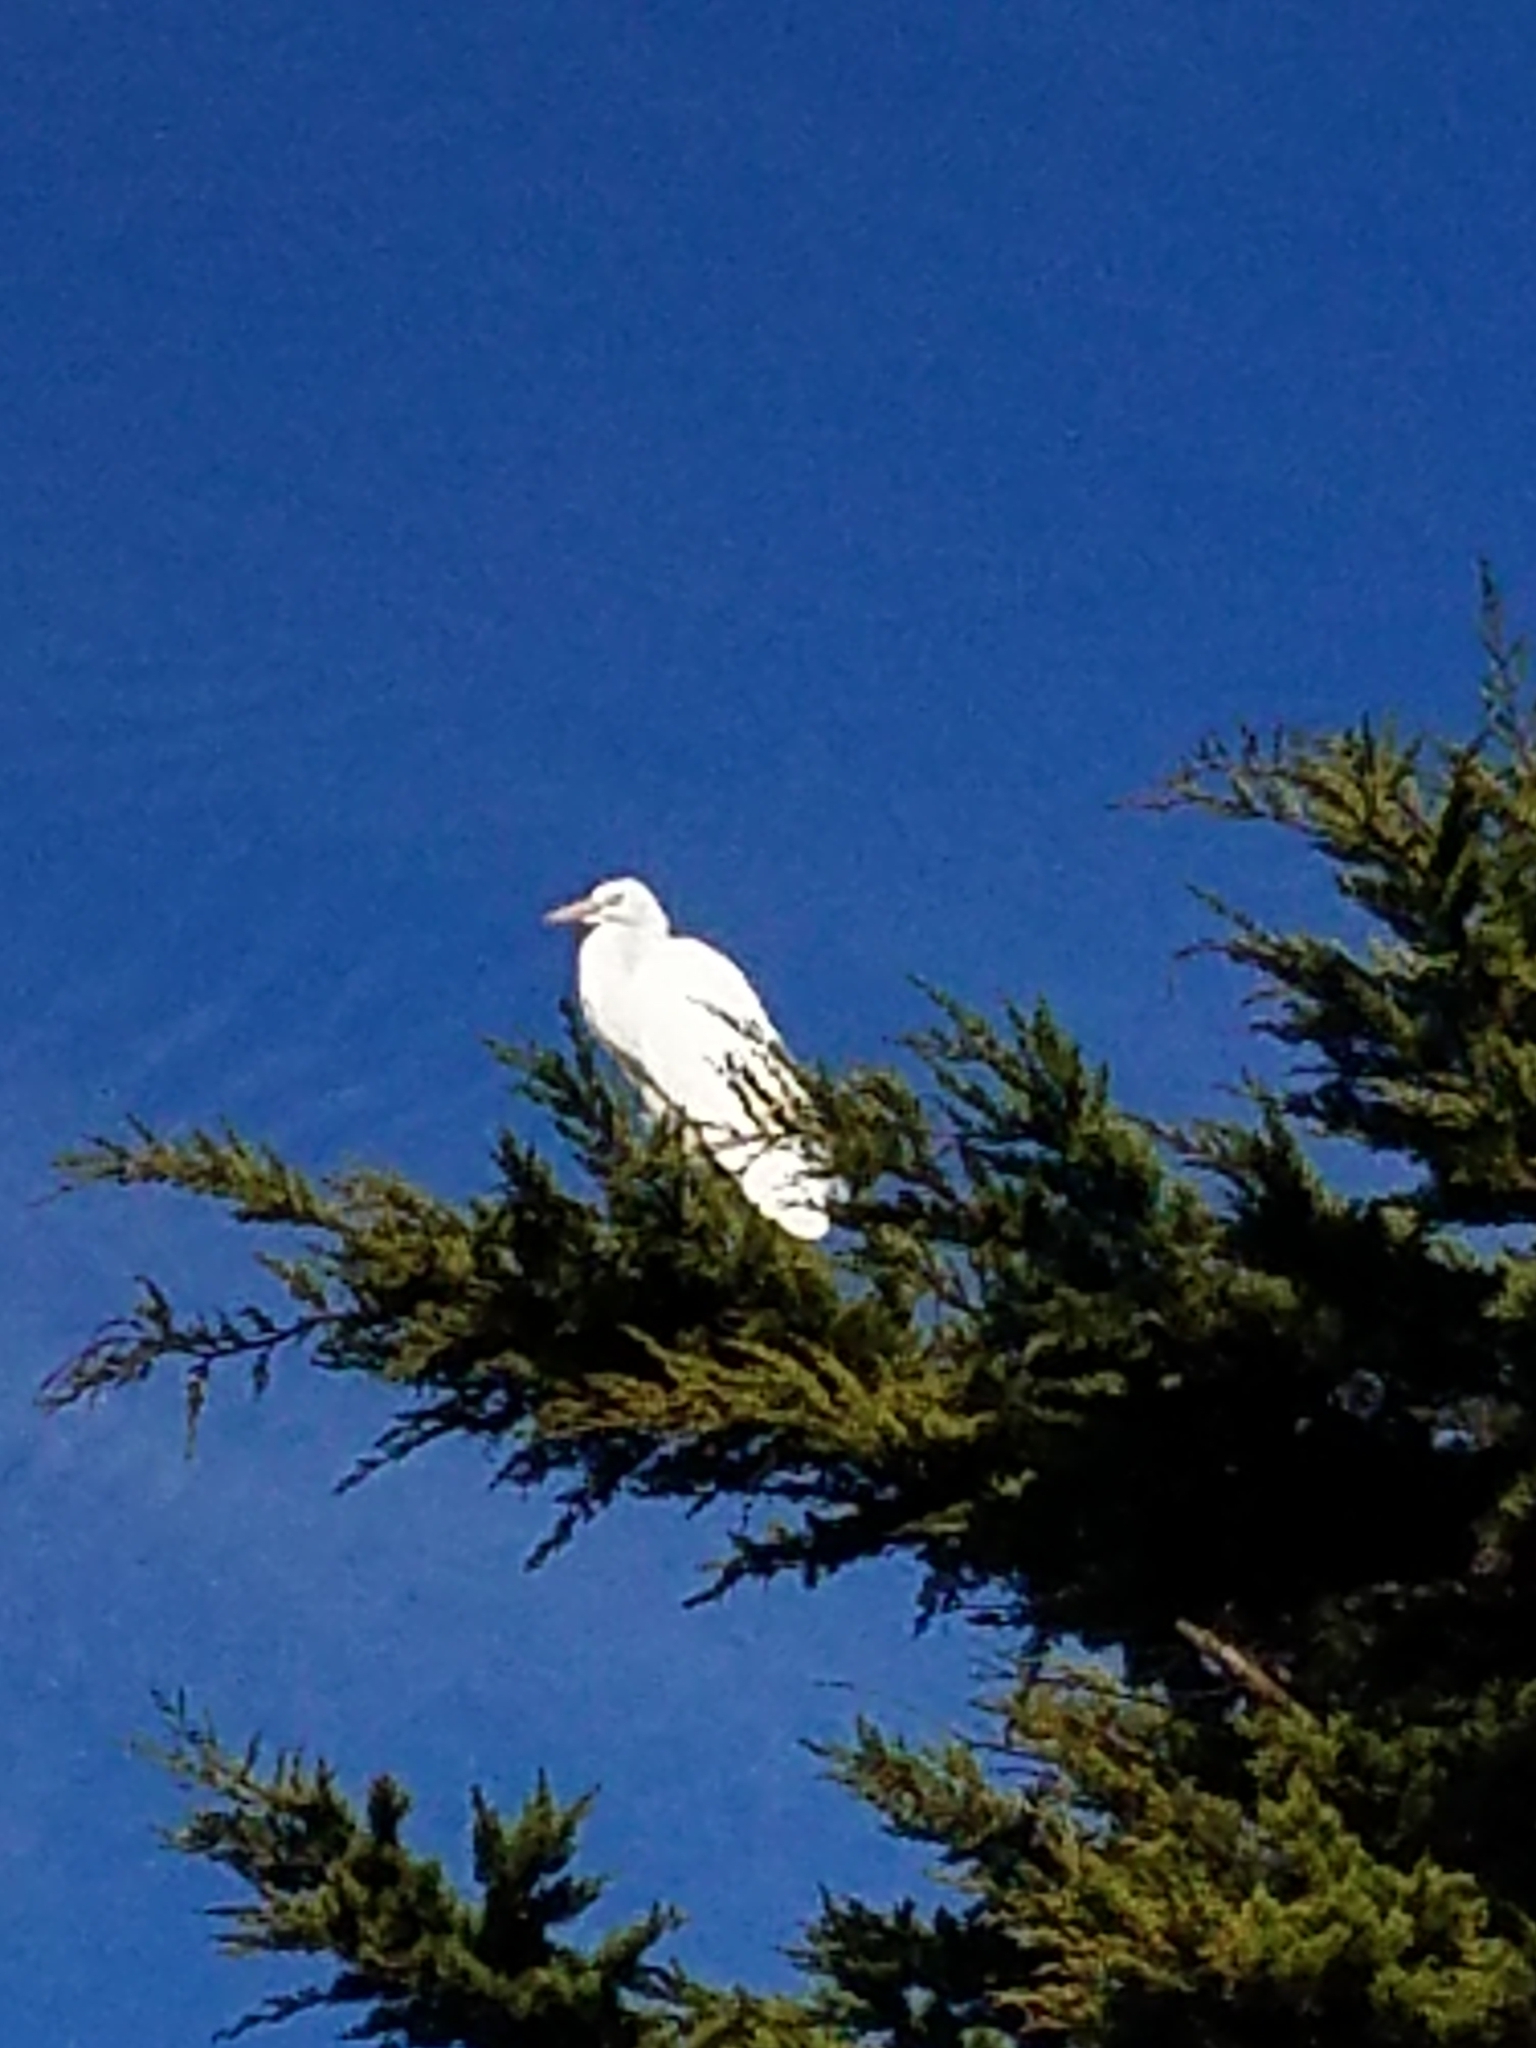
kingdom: Animalia
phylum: Chordata
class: Aves
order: Pelecaniformes
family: Ardeidae
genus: Ardea
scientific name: Ardea alba
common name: Great egret
